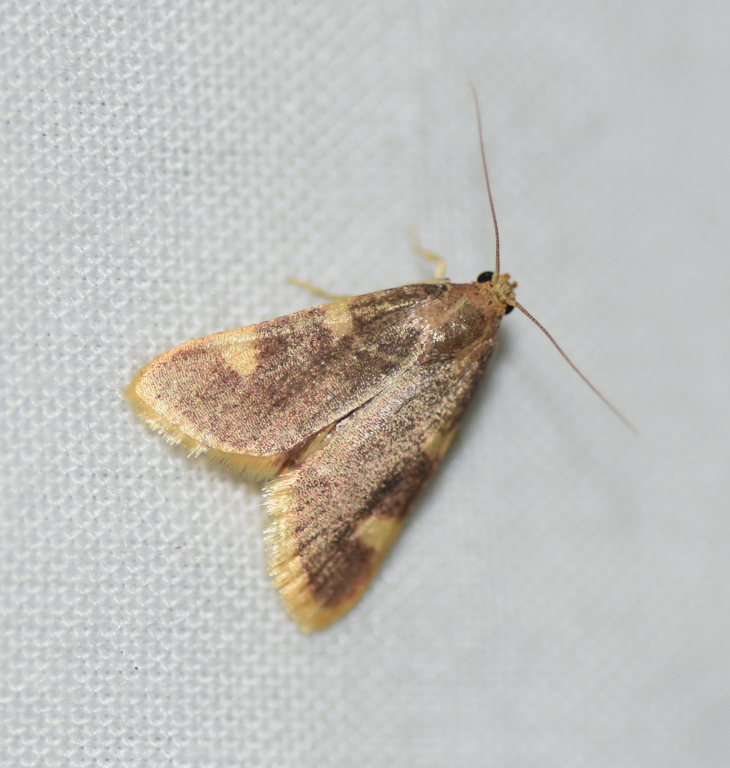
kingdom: Animalia
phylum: Arthropoda
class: Insecta
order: Lepidoptera
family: Pyralidae
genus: Hypsopygia
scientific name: Hypsopygia costalis
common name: Gold triangle
